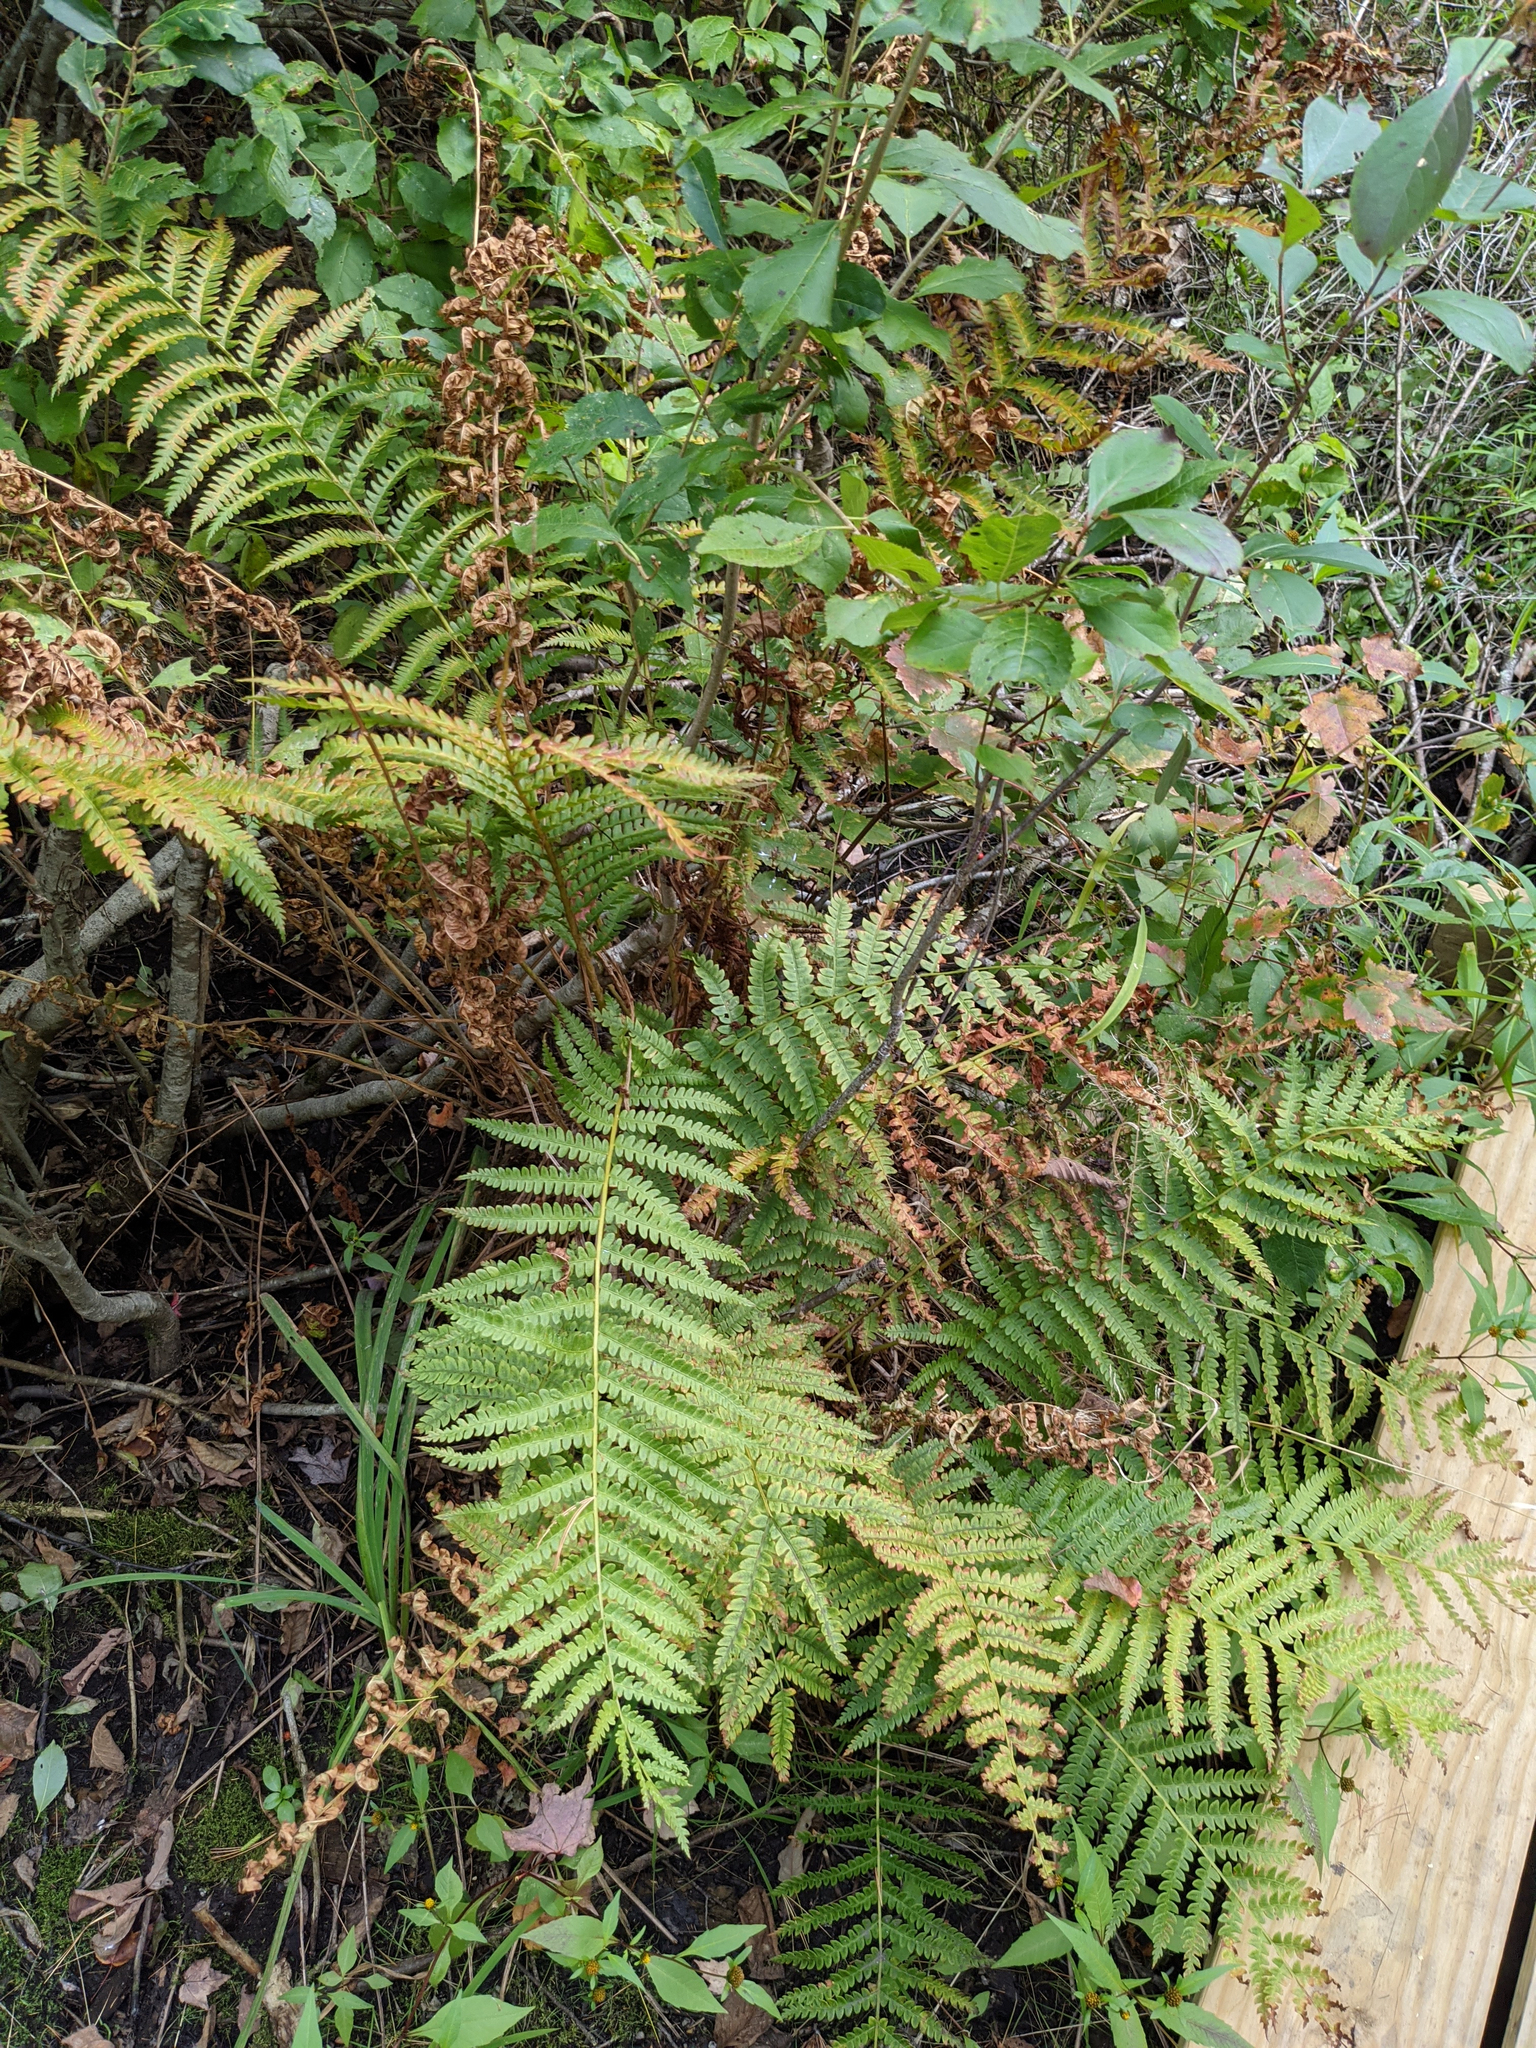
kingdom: Plantae
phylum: Tracheophyta
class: Polypodiopsida
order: Osmundales
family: Osmundaceae
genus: Osmundastrum
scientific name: Osmundastrum cinnamomeum
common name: Cinnamon fern
